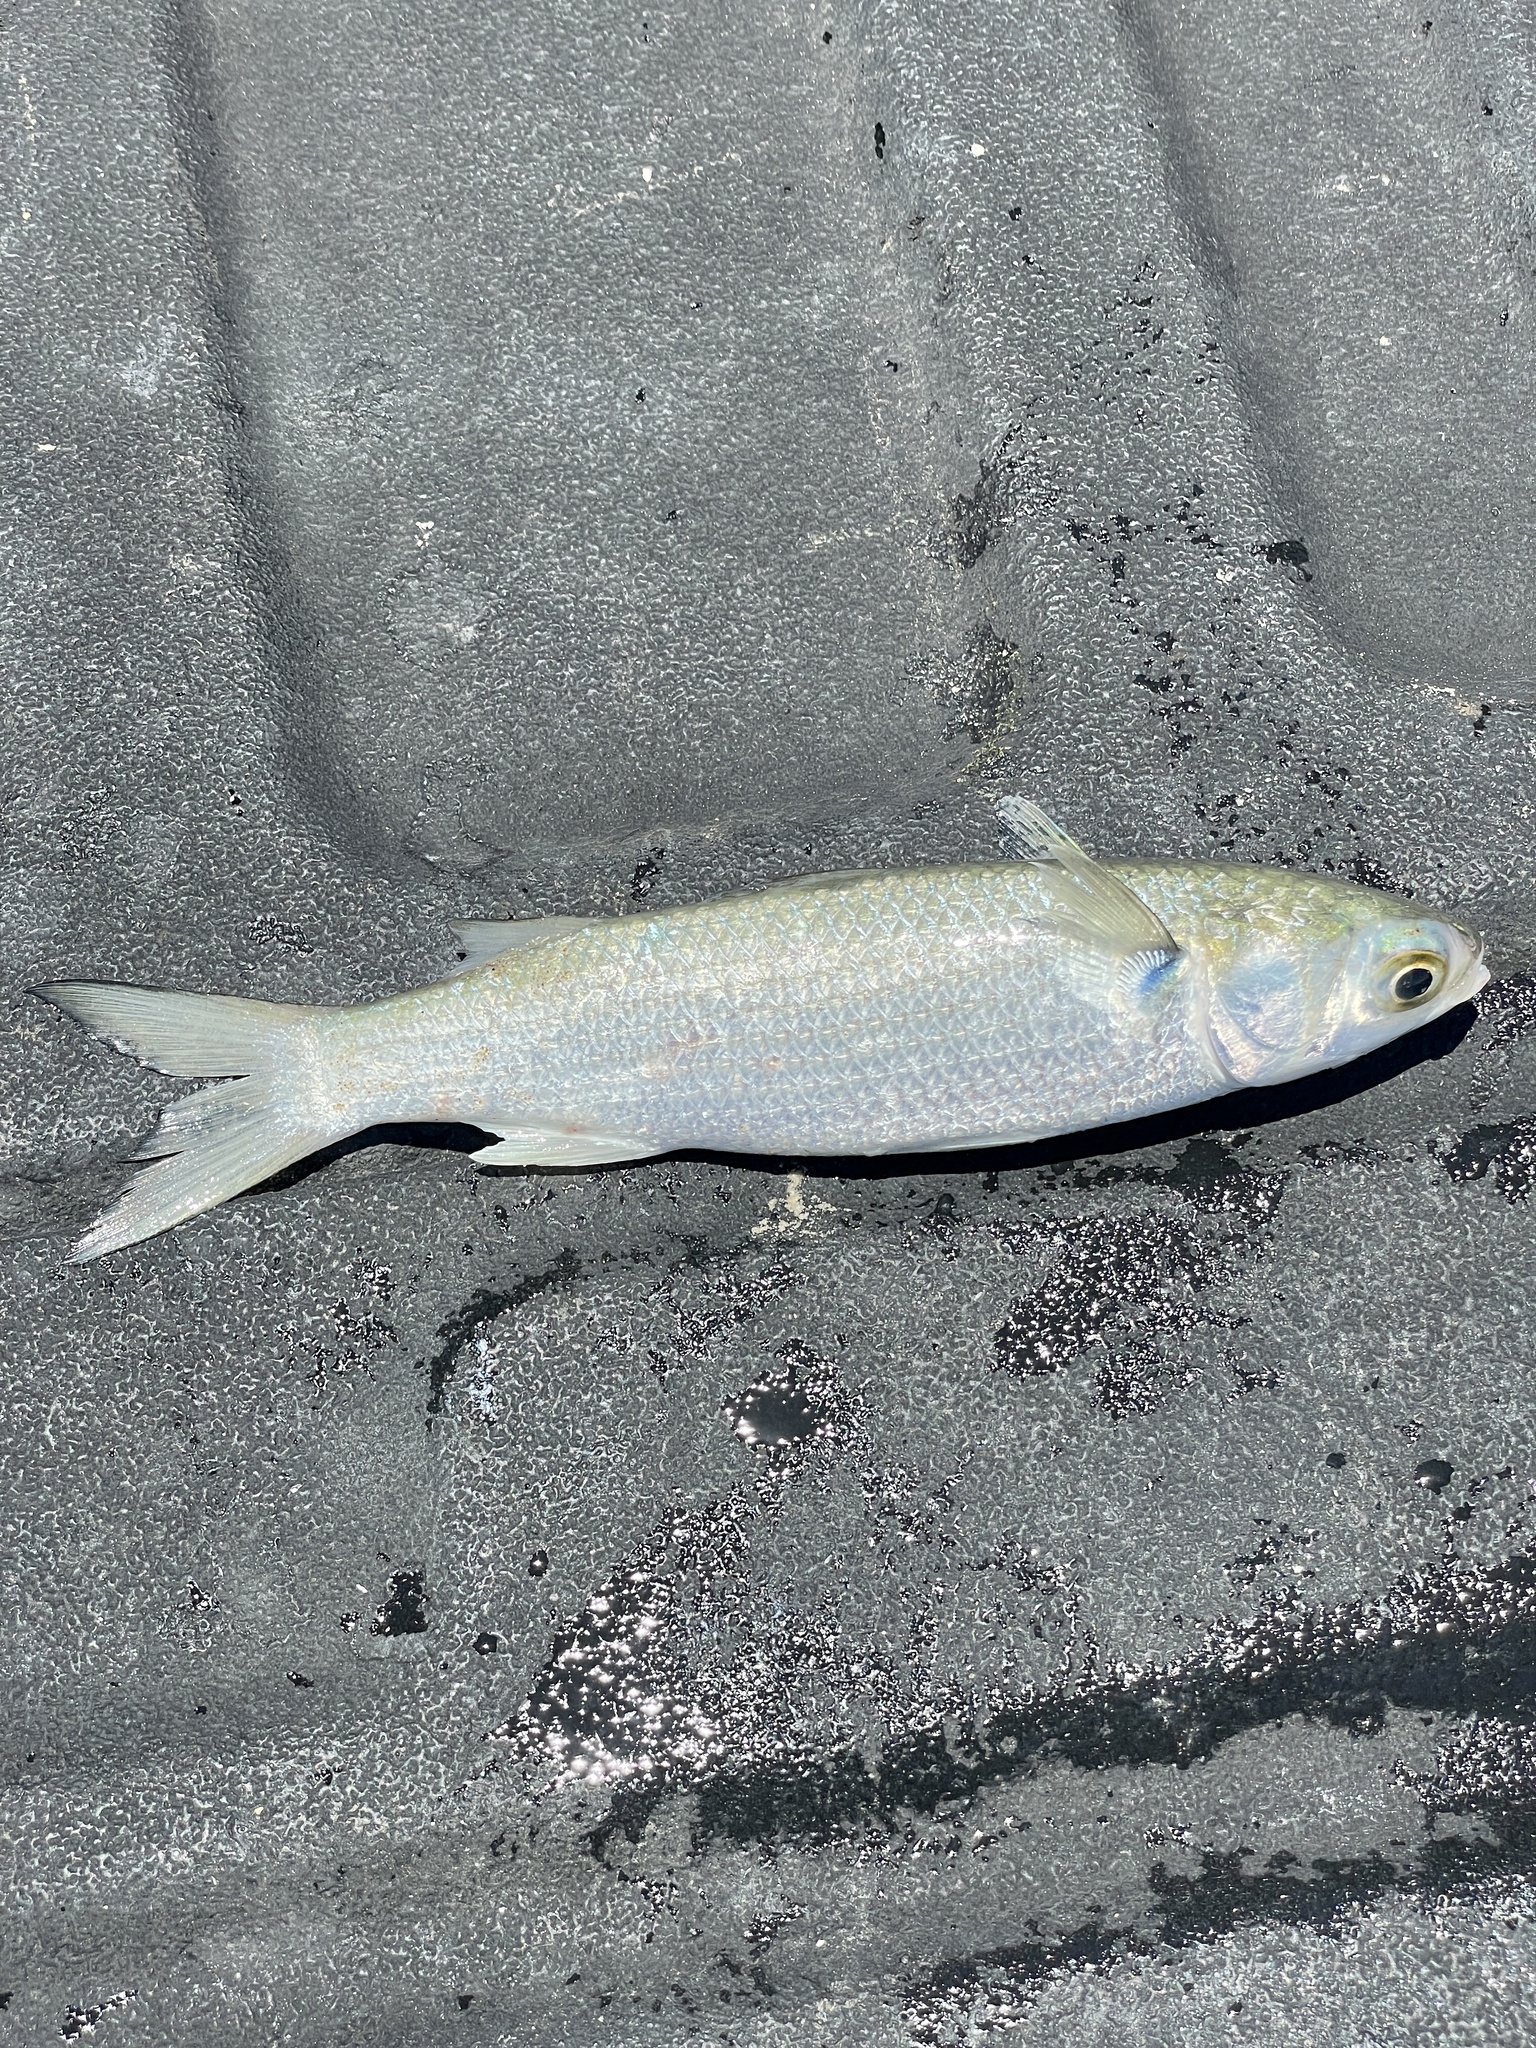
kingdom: Animalia
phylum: Chordata
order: Mugiliformes
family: Mugilidae
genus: Mugil
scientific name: Mugil curema
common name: White mullet
